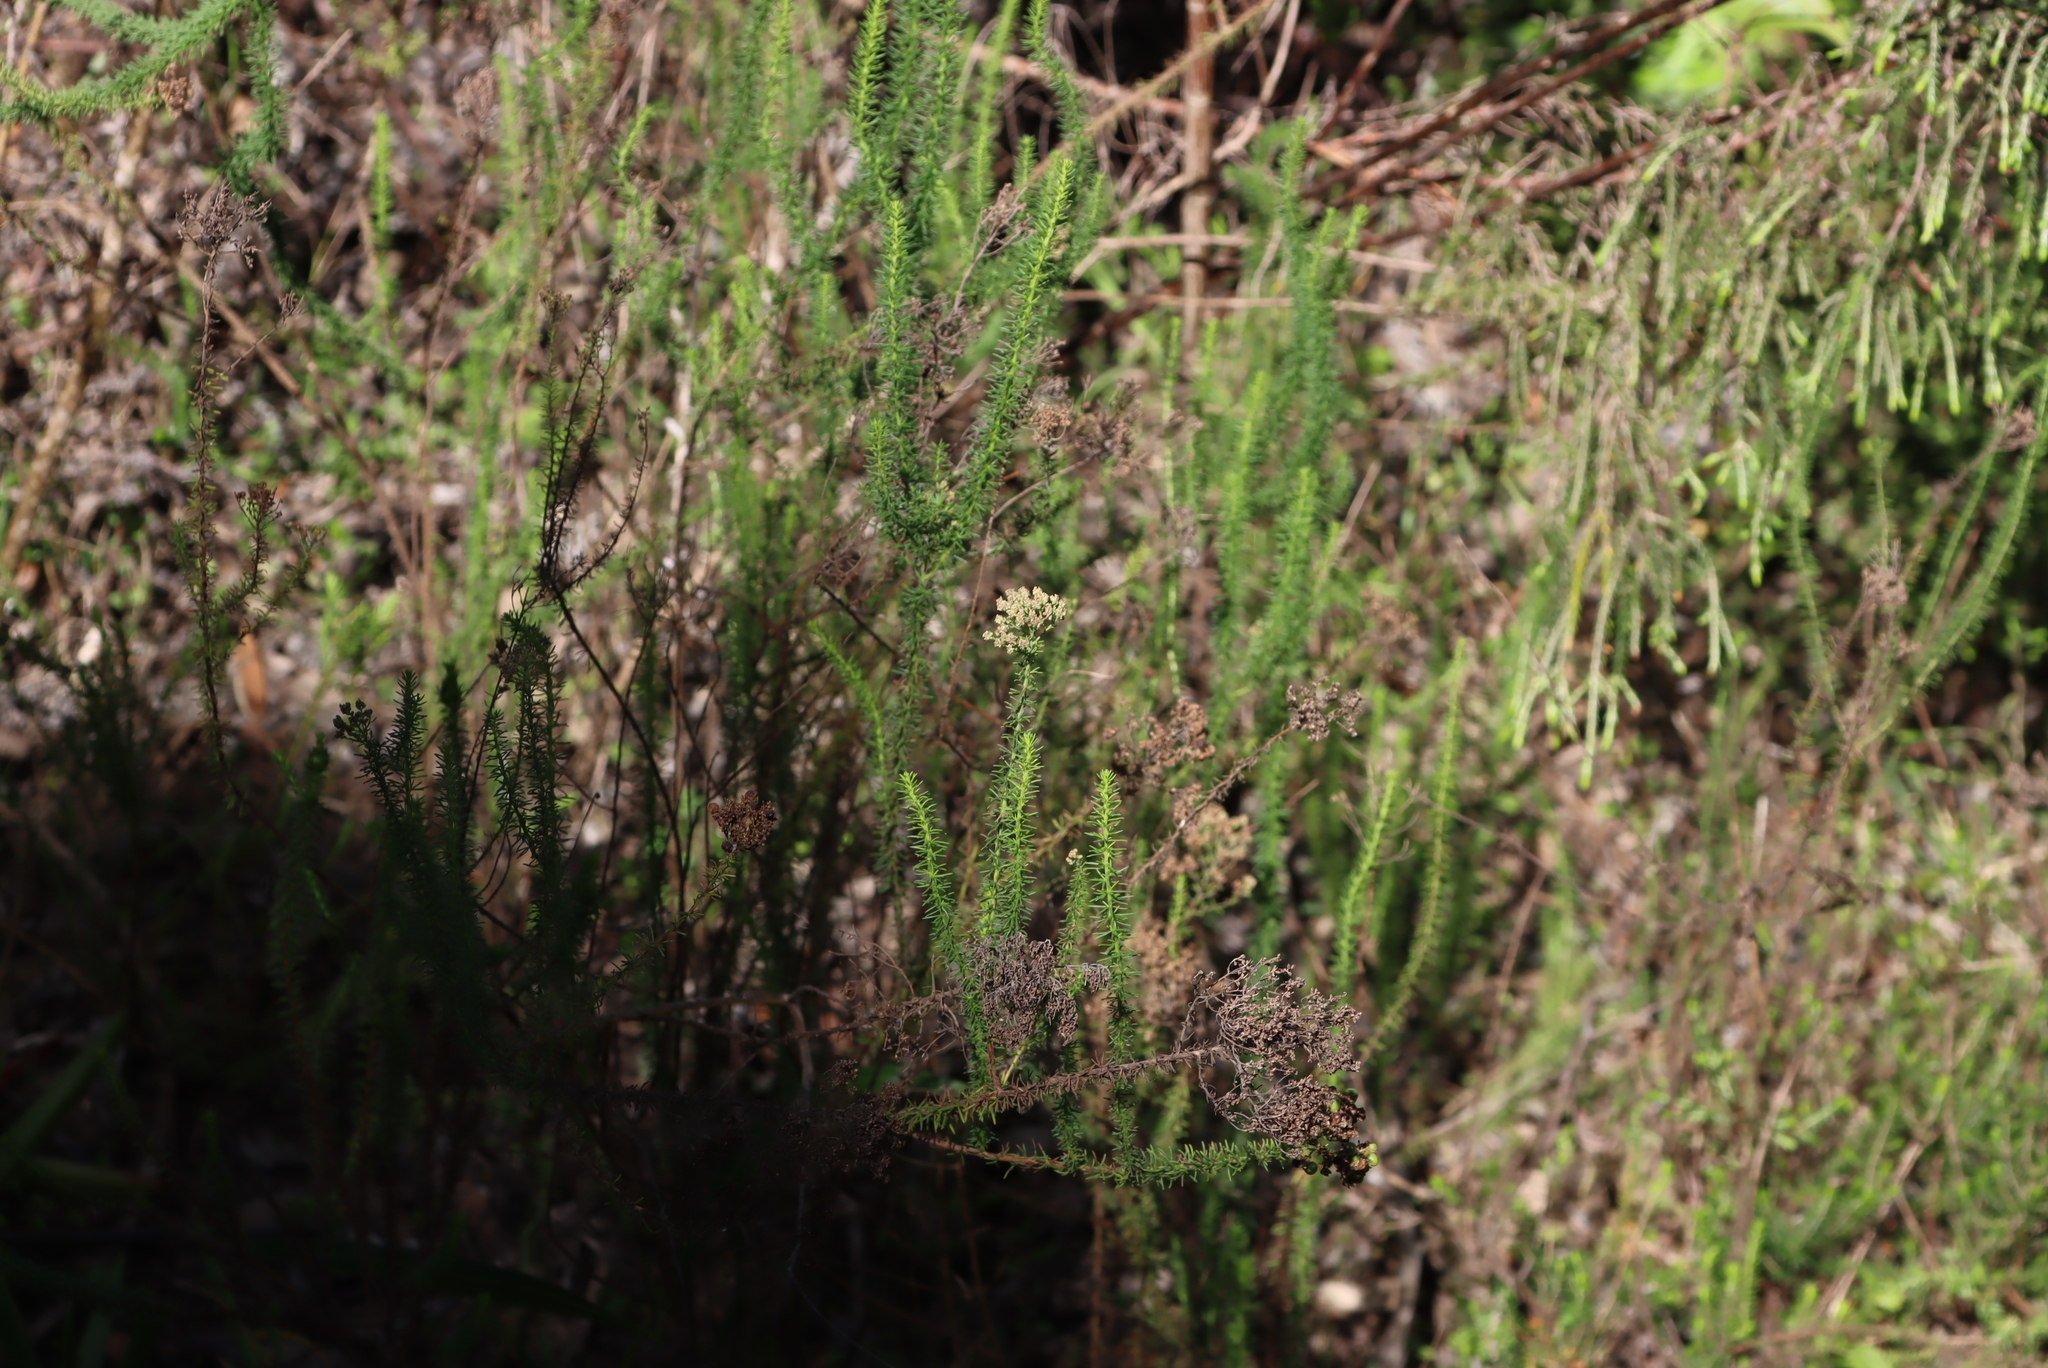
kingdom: Plantae
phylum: Tracheophyta
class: Magnoliopsida
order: Lamiales
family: Scrophulariaceae
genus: Selago
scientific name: Selago corymbosa
